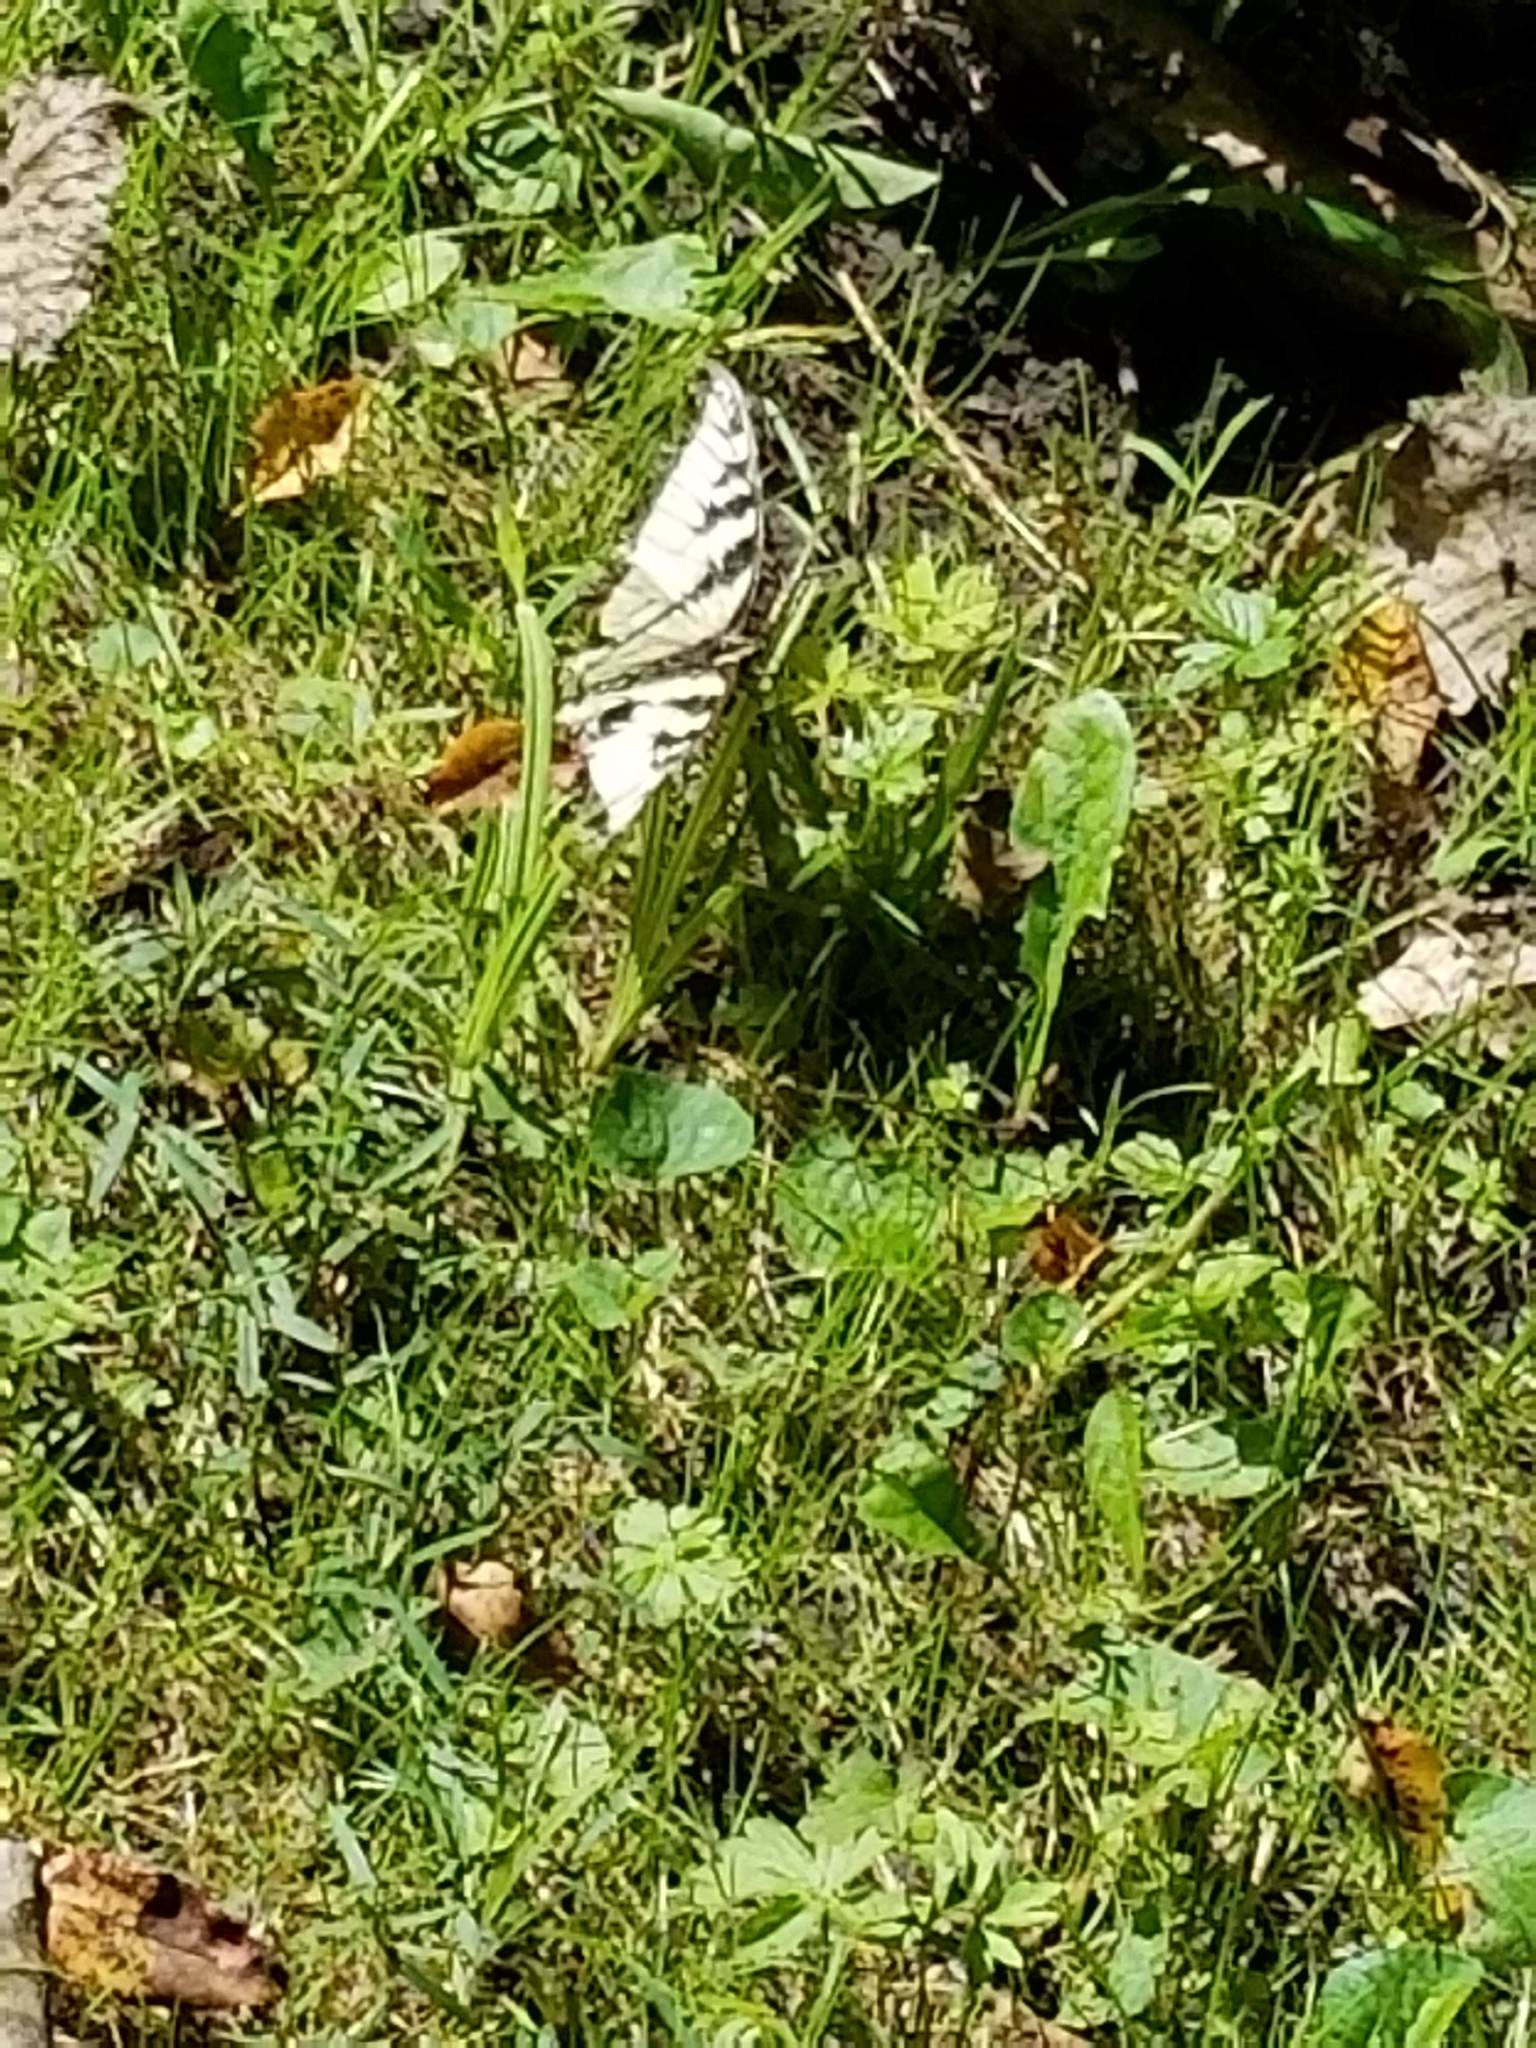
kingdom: Animalia
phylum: Arthropoda
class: Insecta
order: Lepidoptera
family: Papilionidae
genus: Papilio
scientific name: Papilio glaucus
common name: Tiger swallowtail
